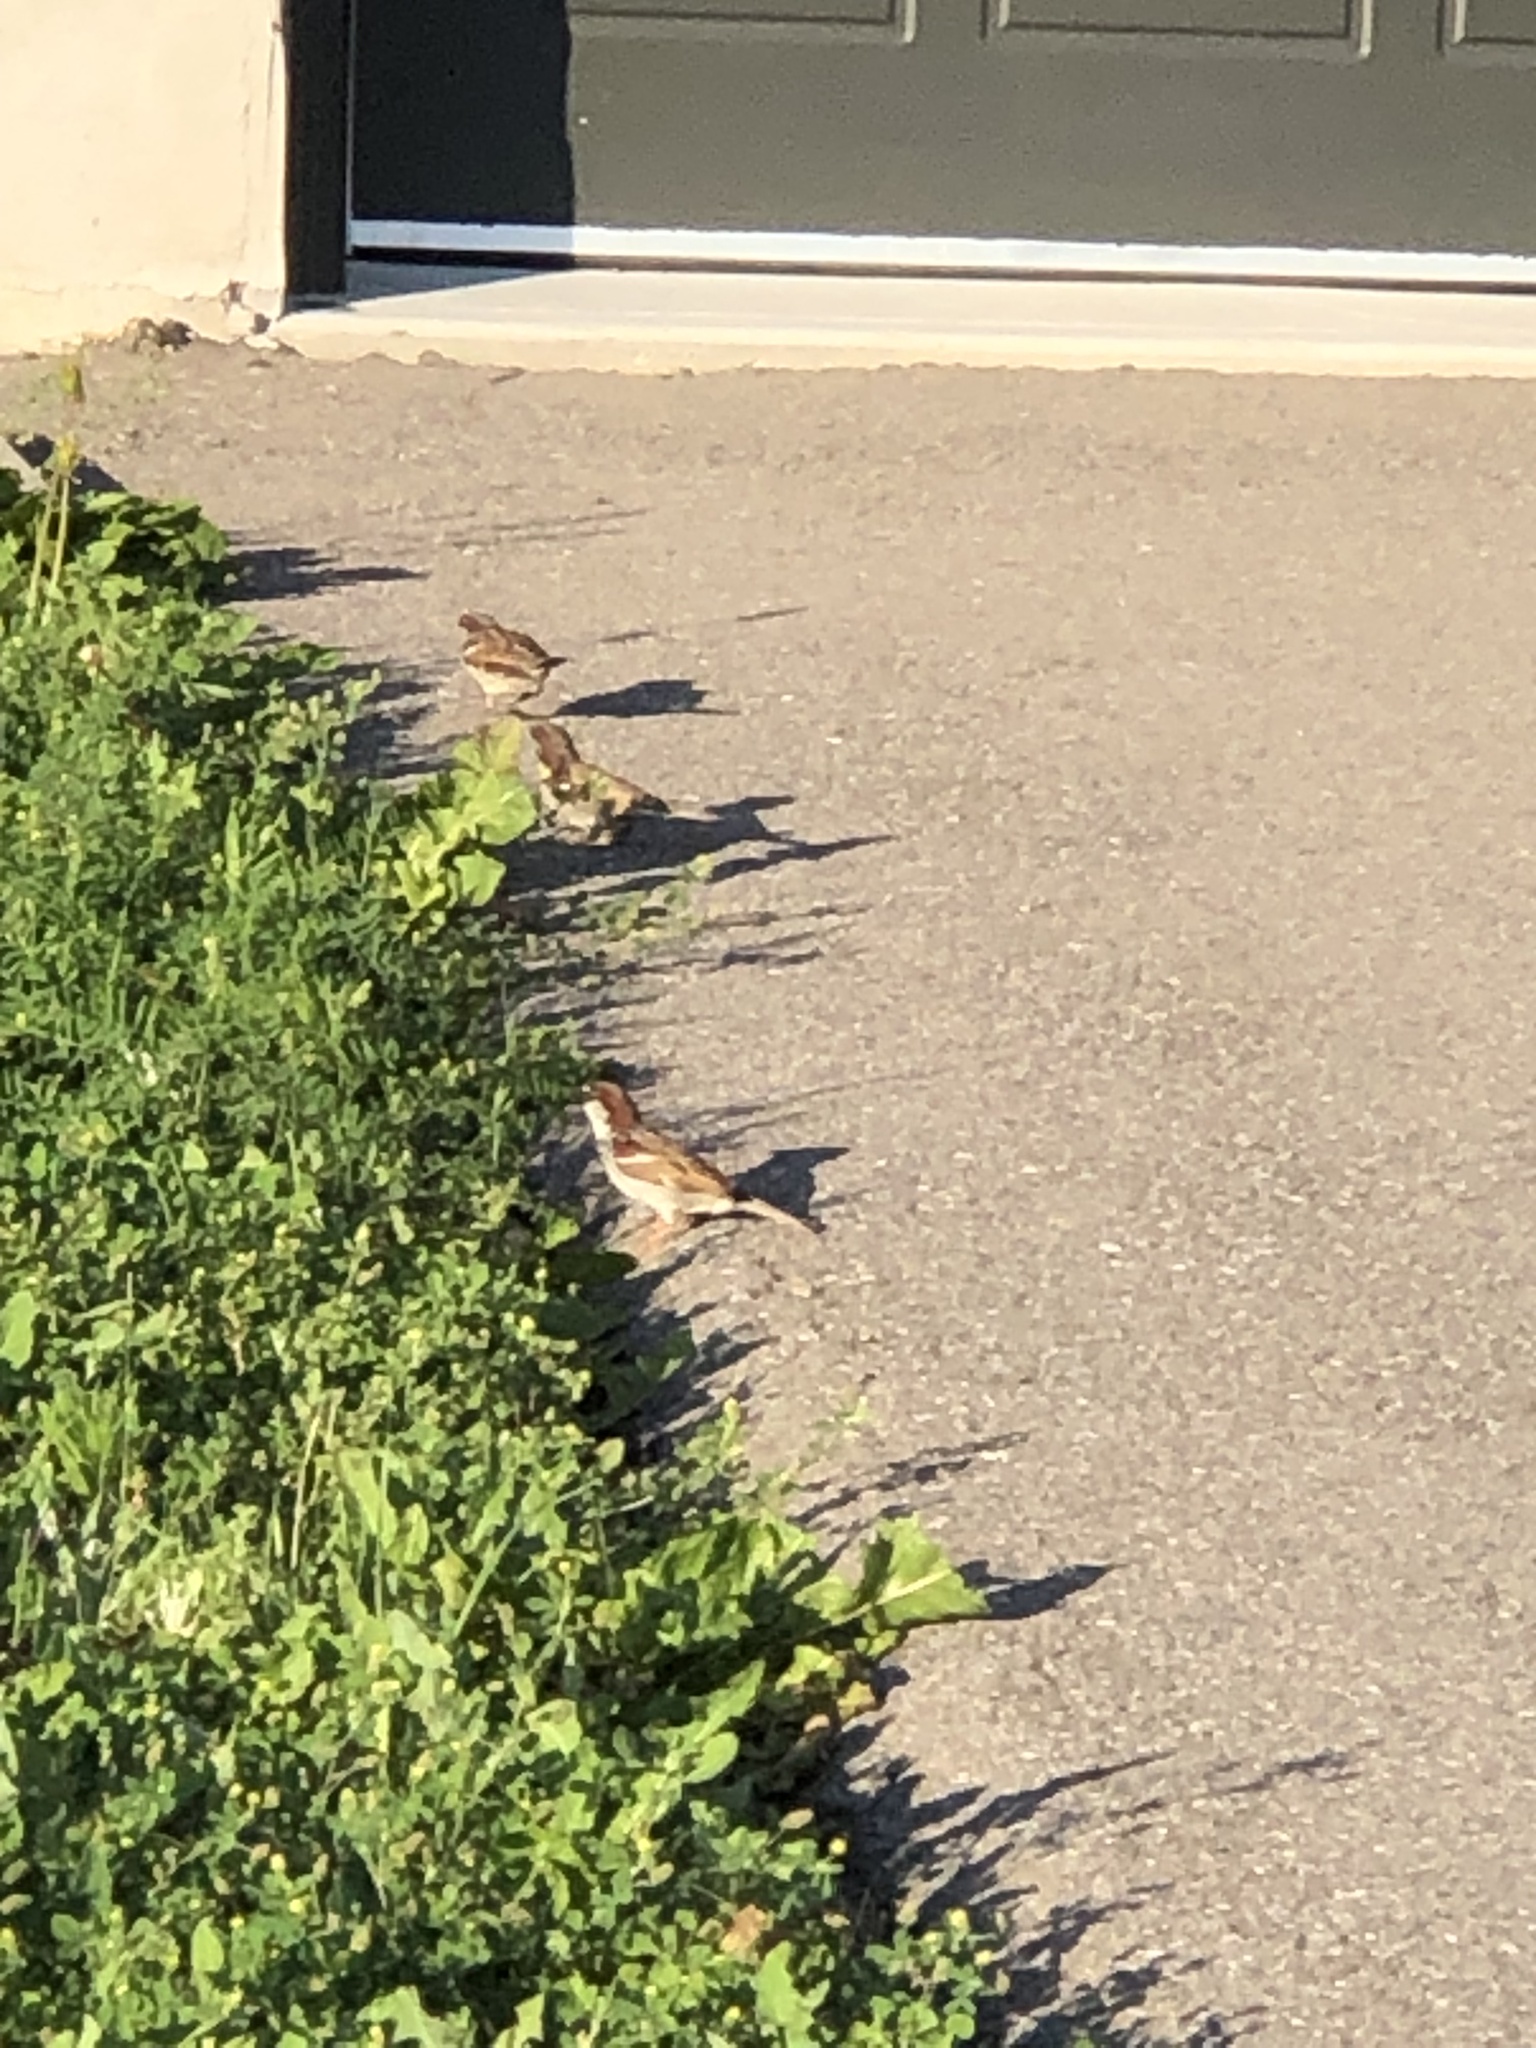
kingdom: Animalia
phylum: Chordata
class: Aves
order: Passeriformes
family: Passeridae
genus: Passer
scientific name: Passer domesticus
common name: House sparrow
